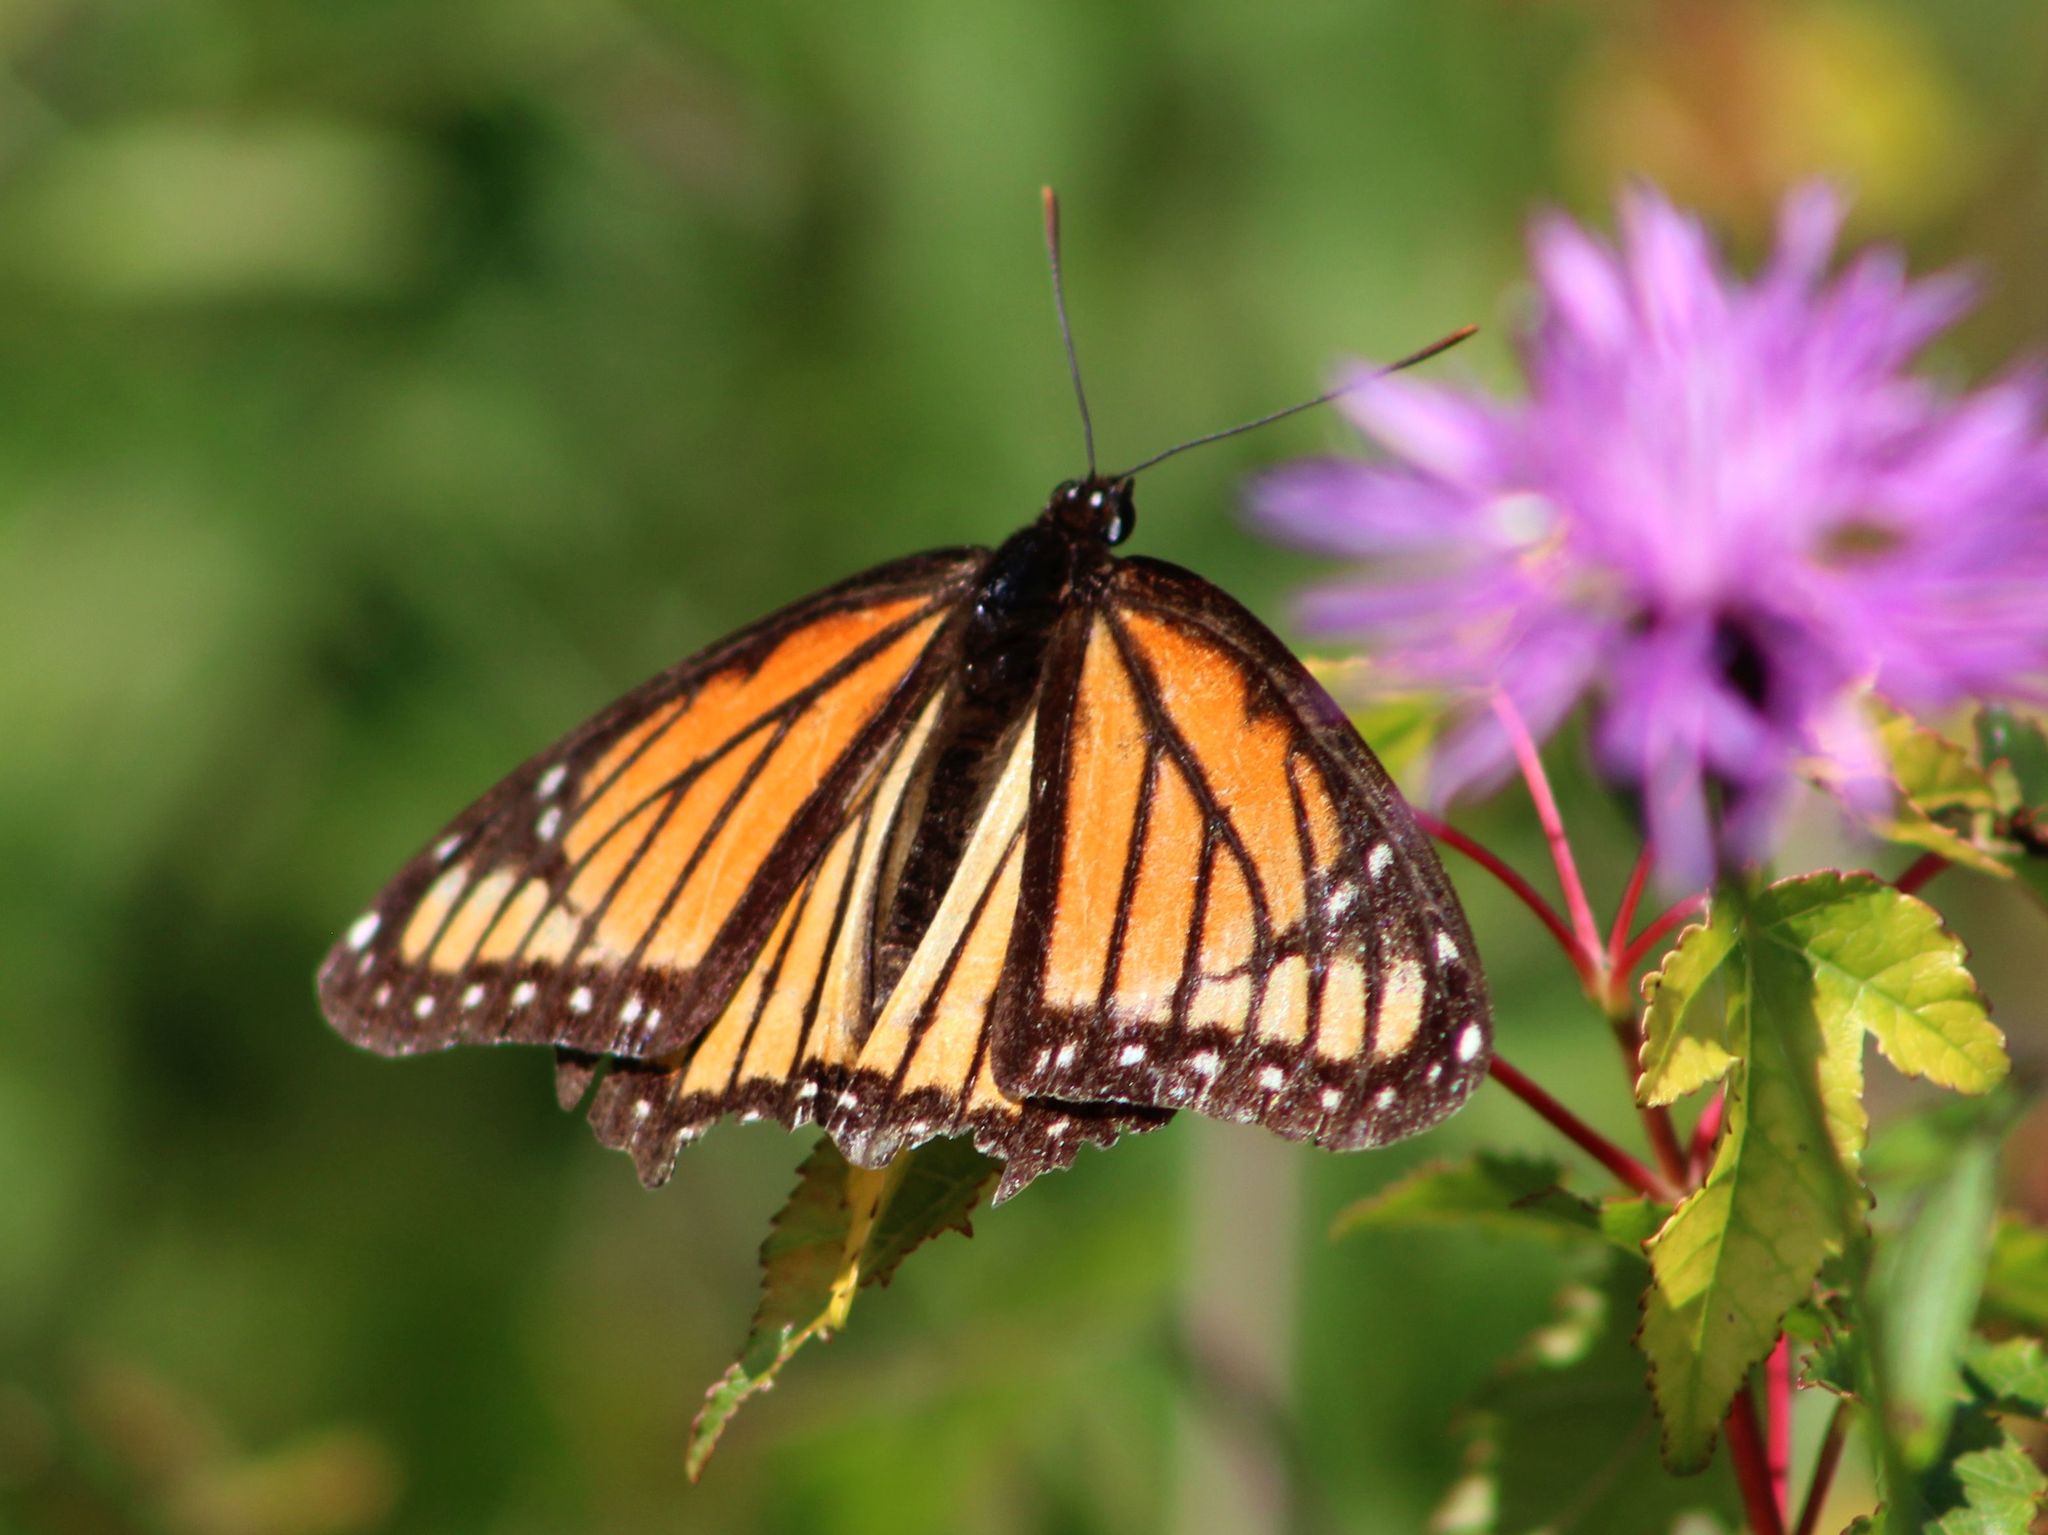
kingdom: Animalia
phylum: Arthropoda
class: Insecta
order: Lepidoptera
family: Nymphalidae
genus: Limenitis
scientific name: Limenitis archippus
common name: Viceroy
